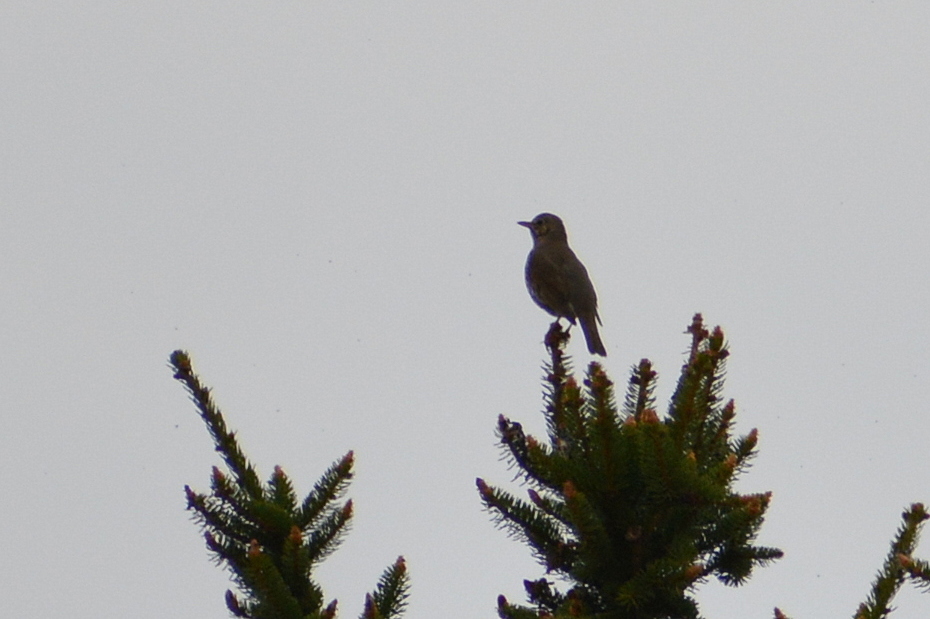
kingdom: Animalia
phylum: Chordata
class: Aves
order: Passeriformes
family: Turdidae
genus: Turdus
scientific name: Turdus philomelos
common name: Song thrush
